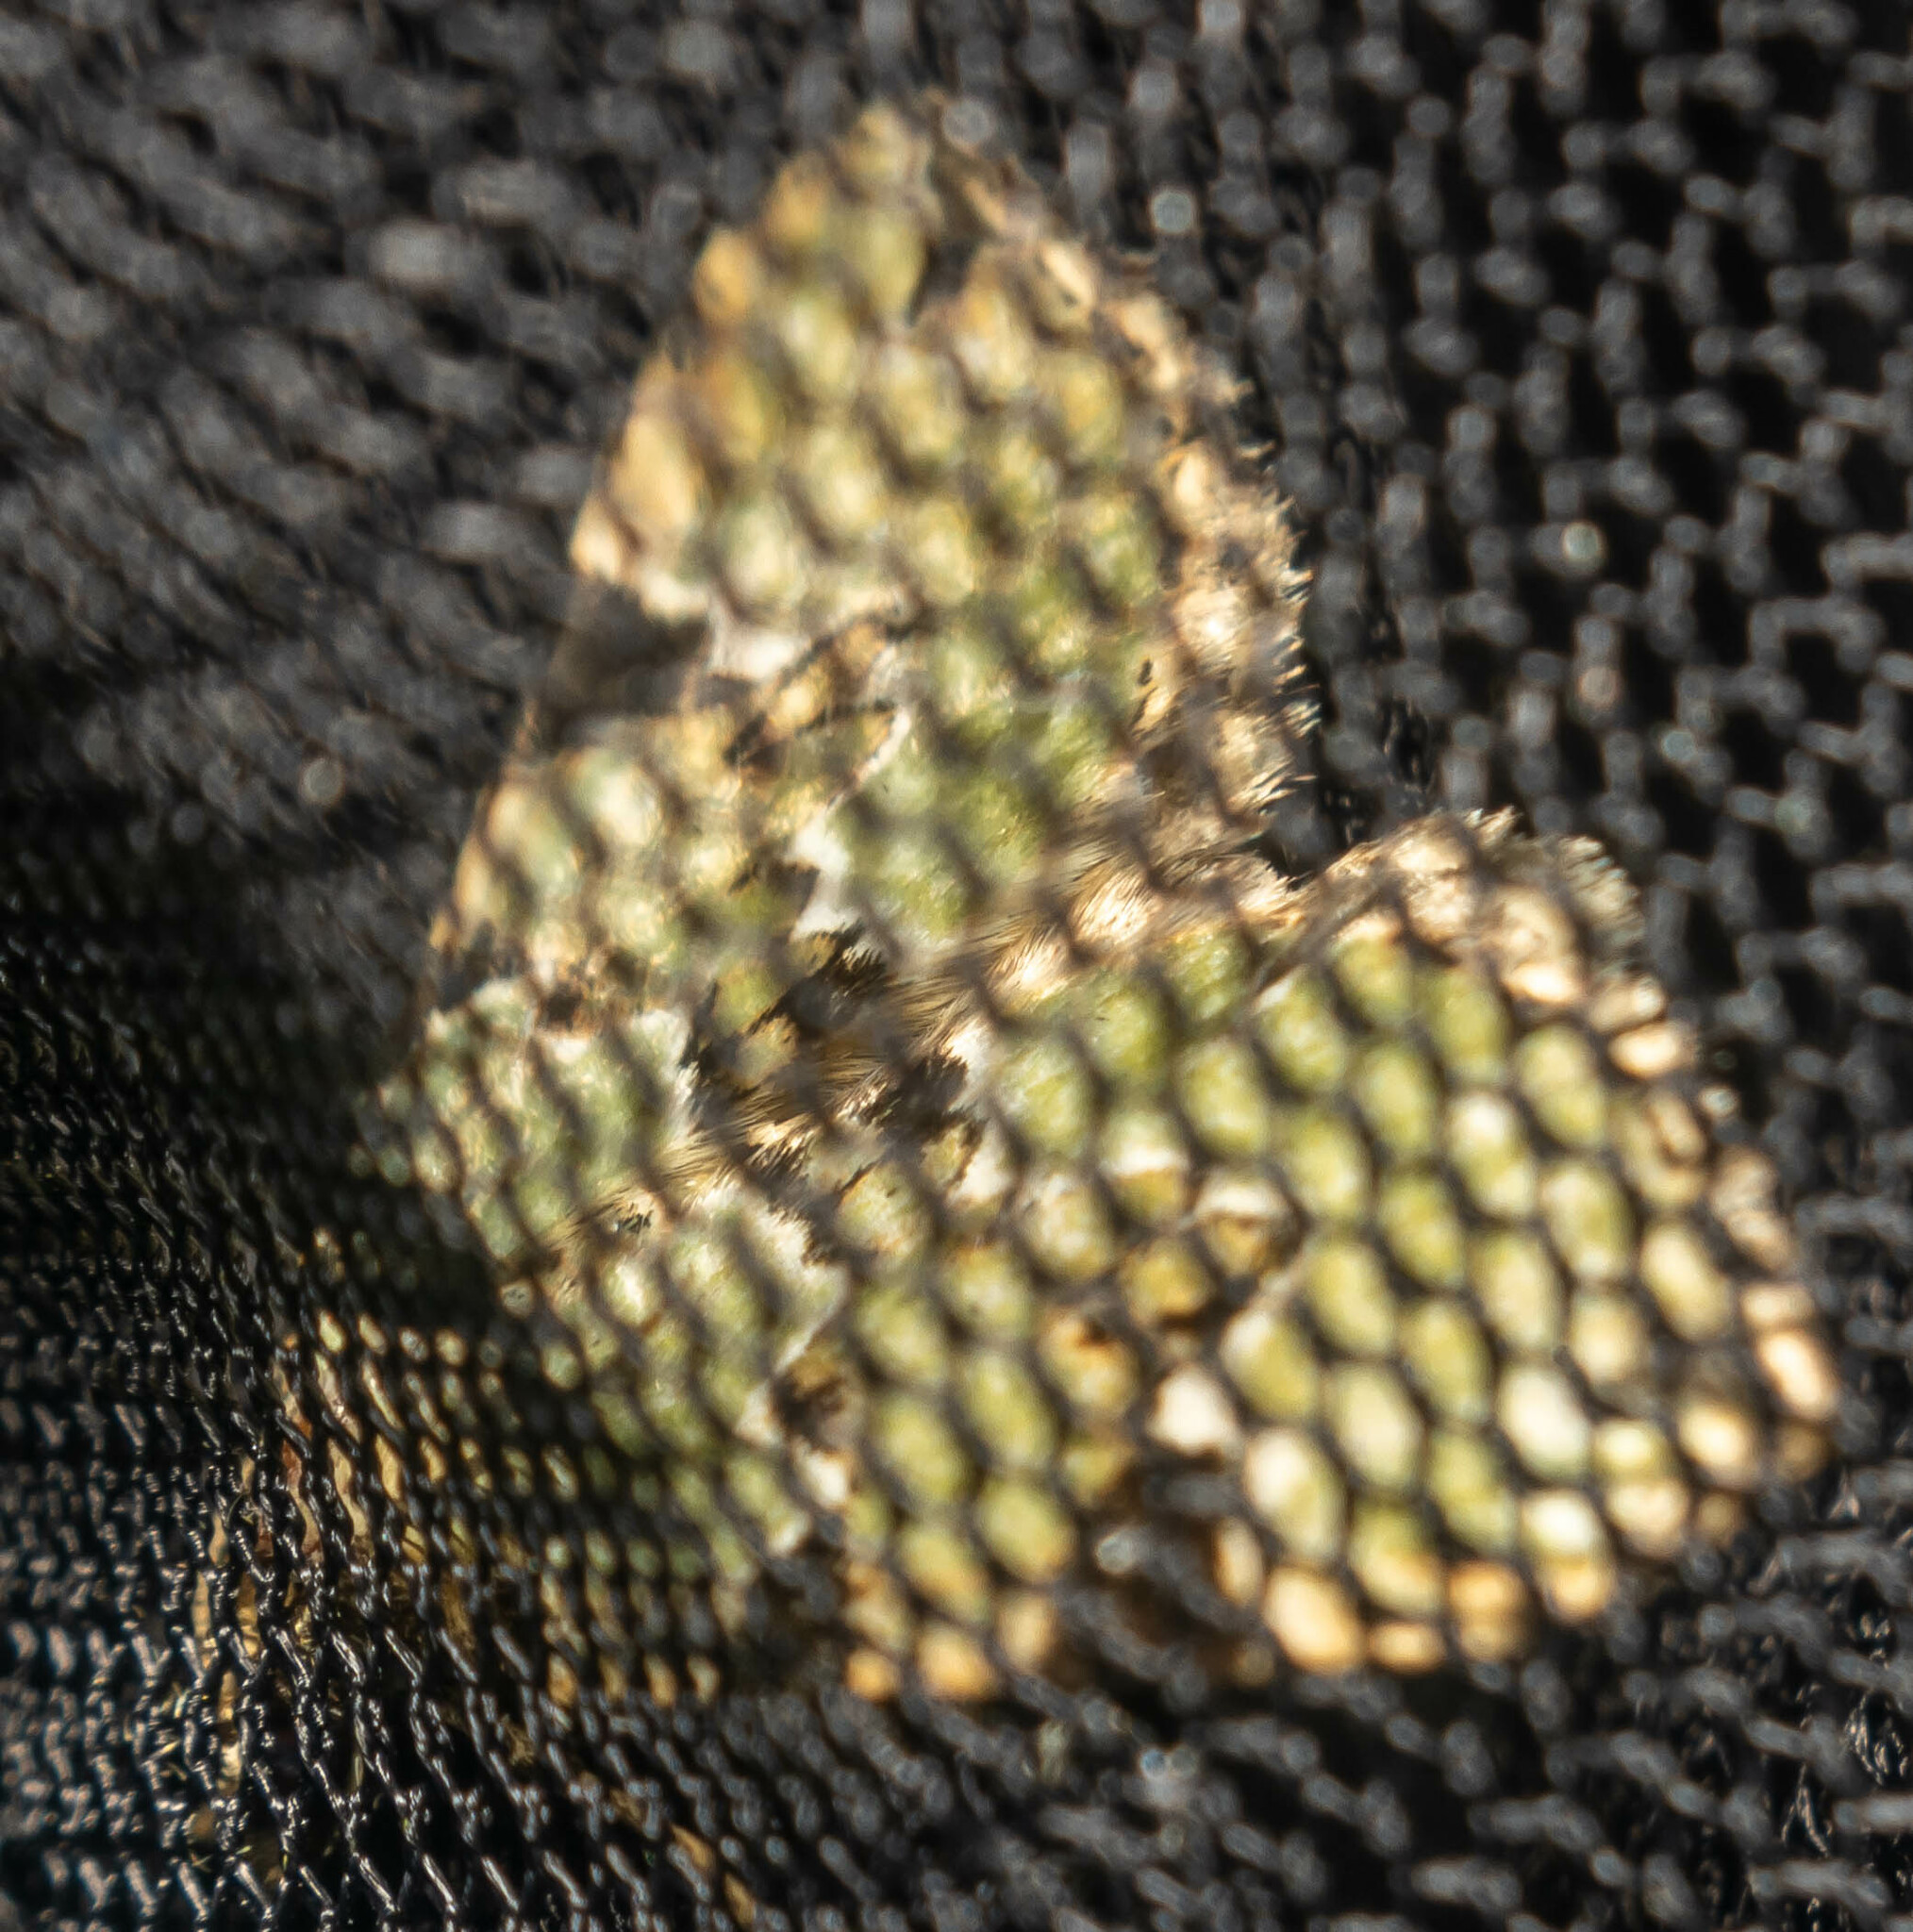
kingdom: Animalia
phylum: Arthropoda
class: Insecta
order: Lepidoptera
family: Geometridae
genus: Colostygia
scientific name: Colostygia pectinataria
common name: Green carpet
